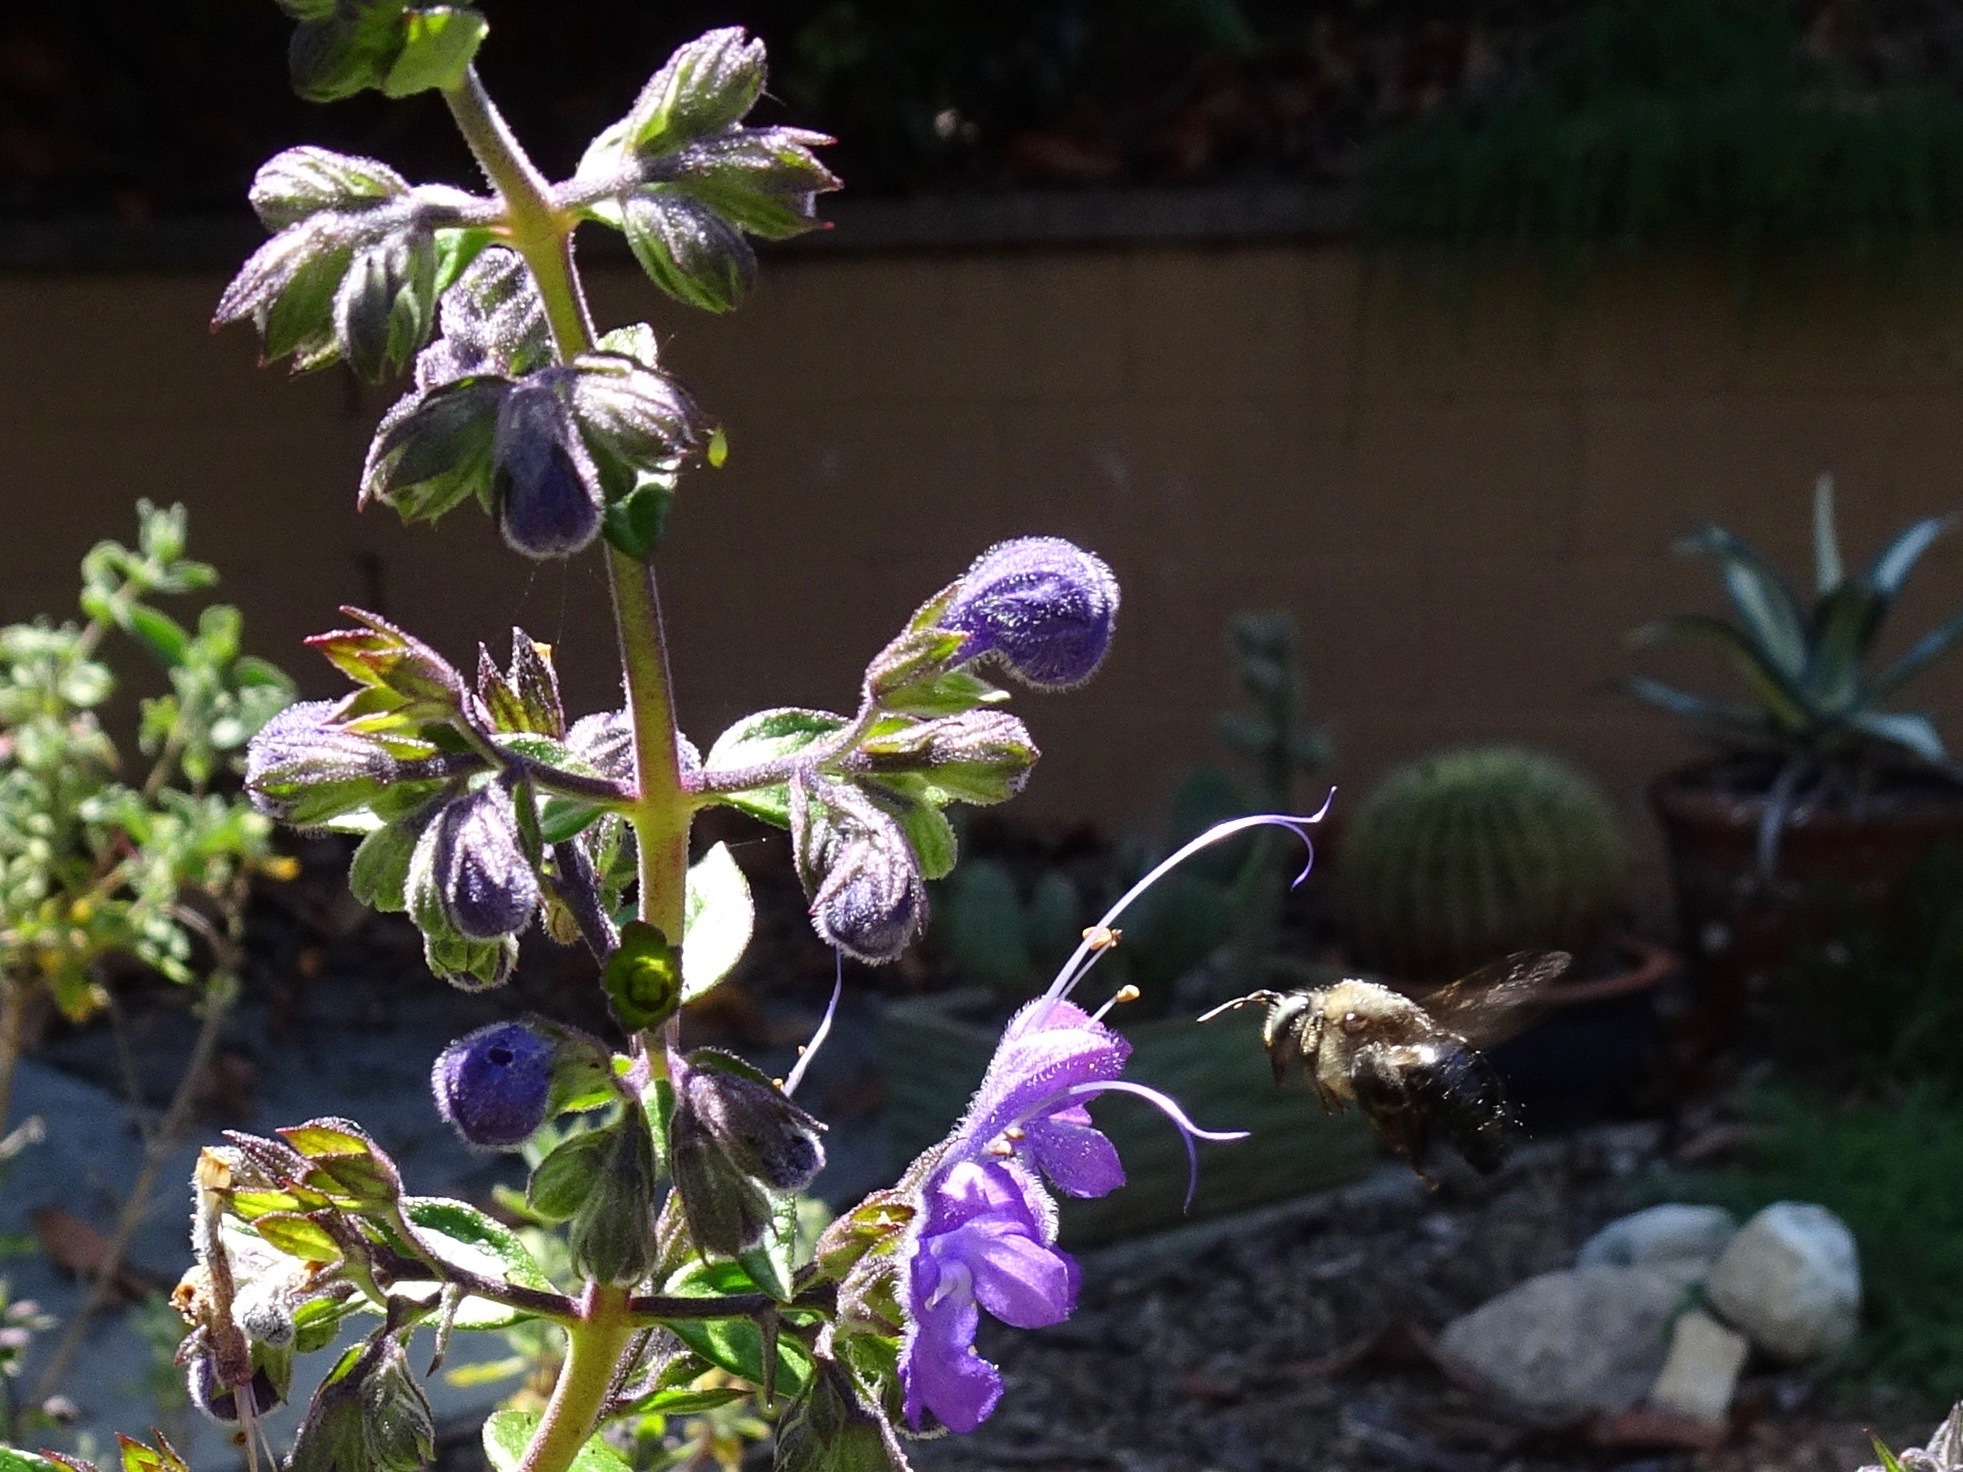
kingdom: Animalia
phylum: Arthropoda
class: Insecta
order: Hymenoptera
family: Apidae
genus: Xylocopa
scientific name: Xylocopa tabaniformis
